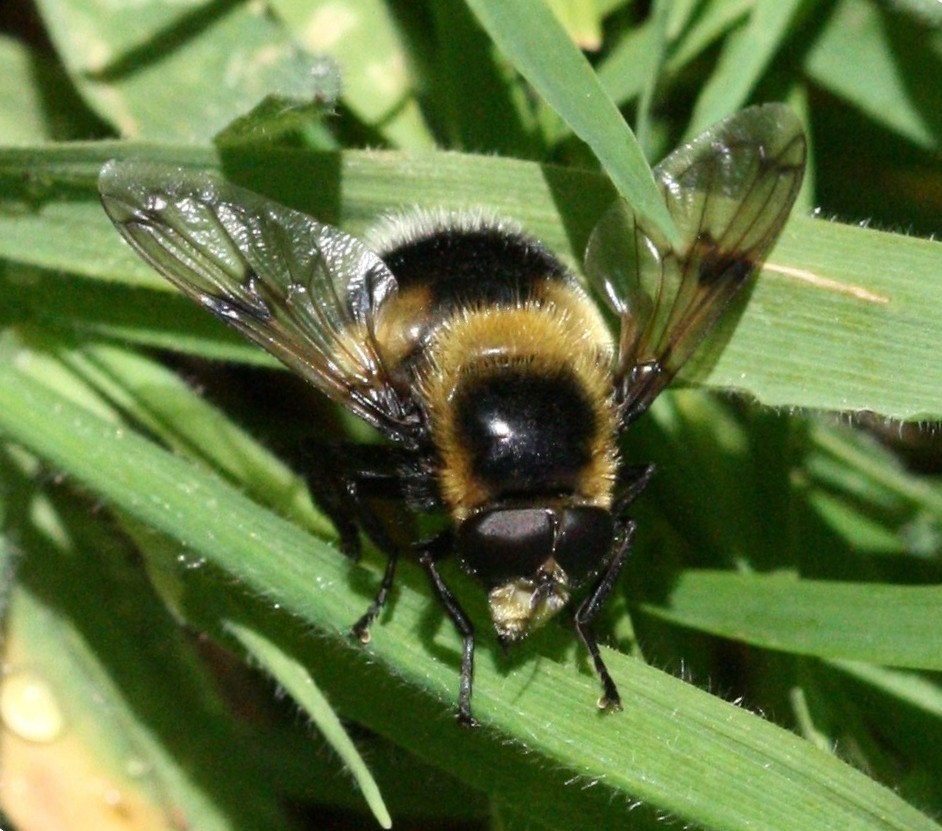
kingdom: Animalia
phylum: Arthropoda
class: Insecta
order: Diptera
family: Syrphidae
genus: Volucella
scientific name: Volucella bombylans
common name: Bumble bee hover fly
